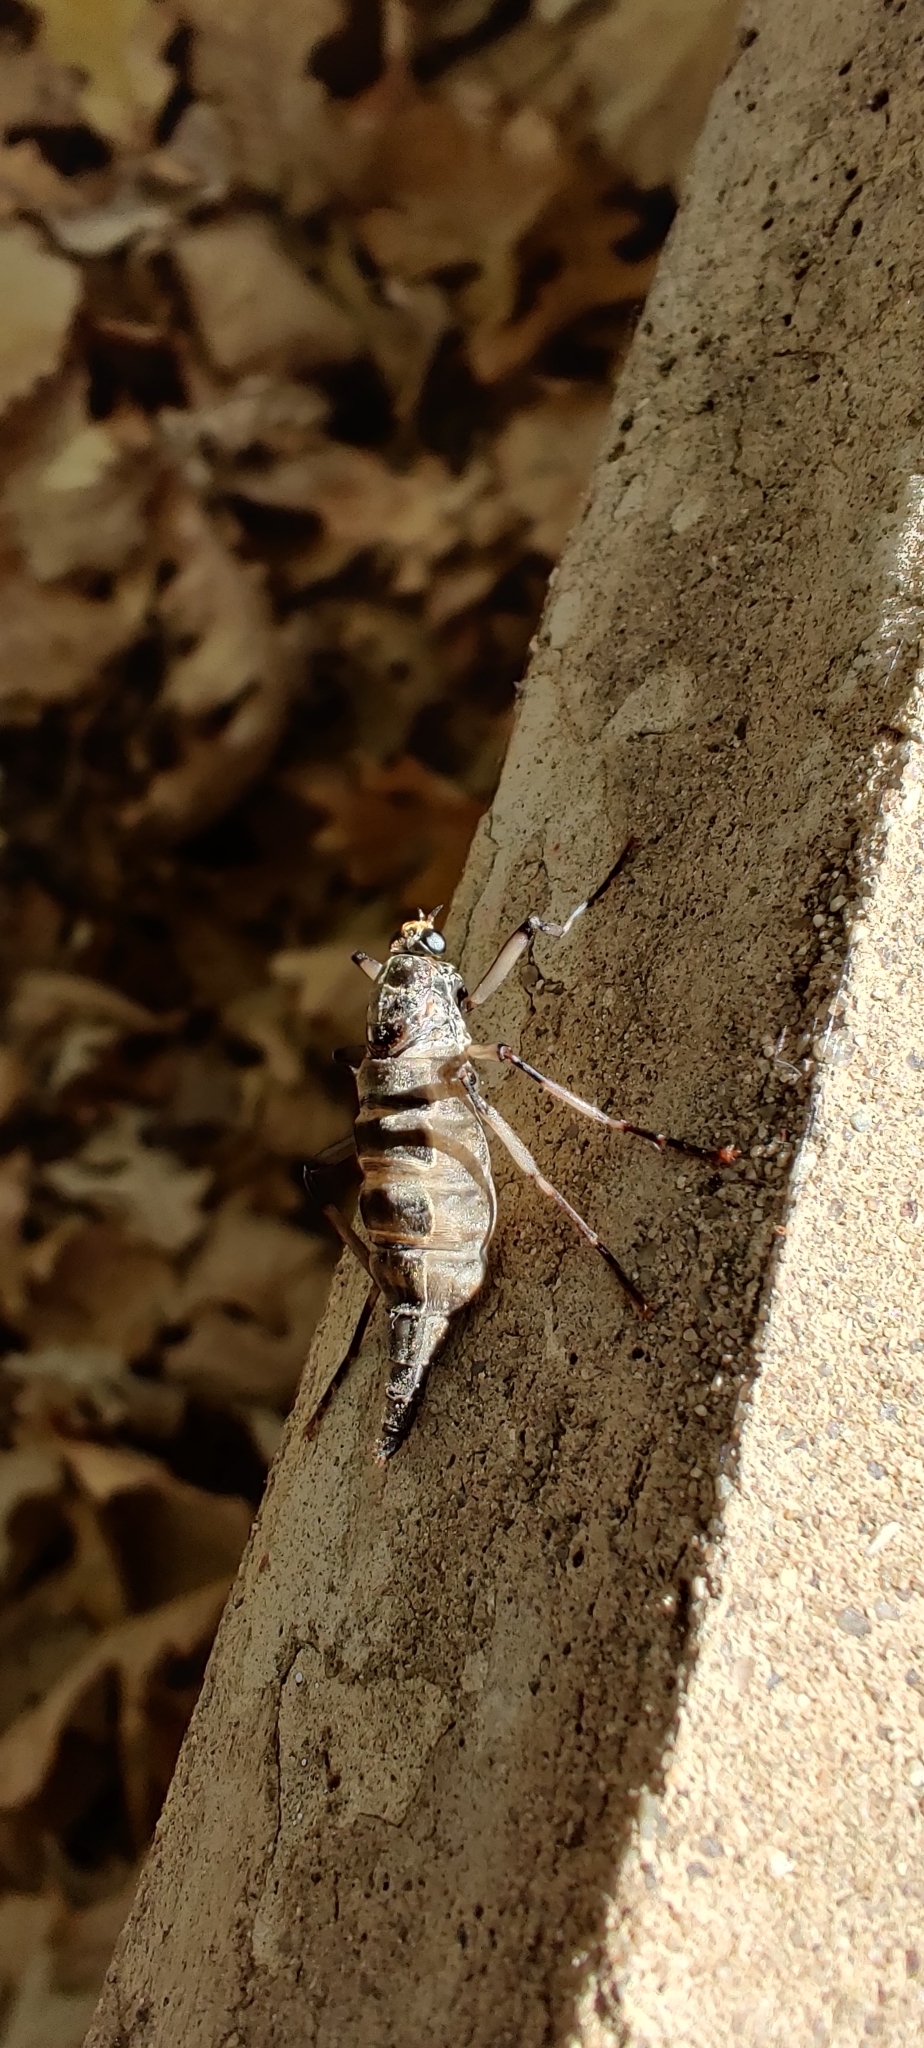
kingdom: Animalia
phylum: Arthropoda
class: Insecta
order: Diptera
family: Stratiomyidae
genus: Boreoides
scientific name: Boreoides subulatus
